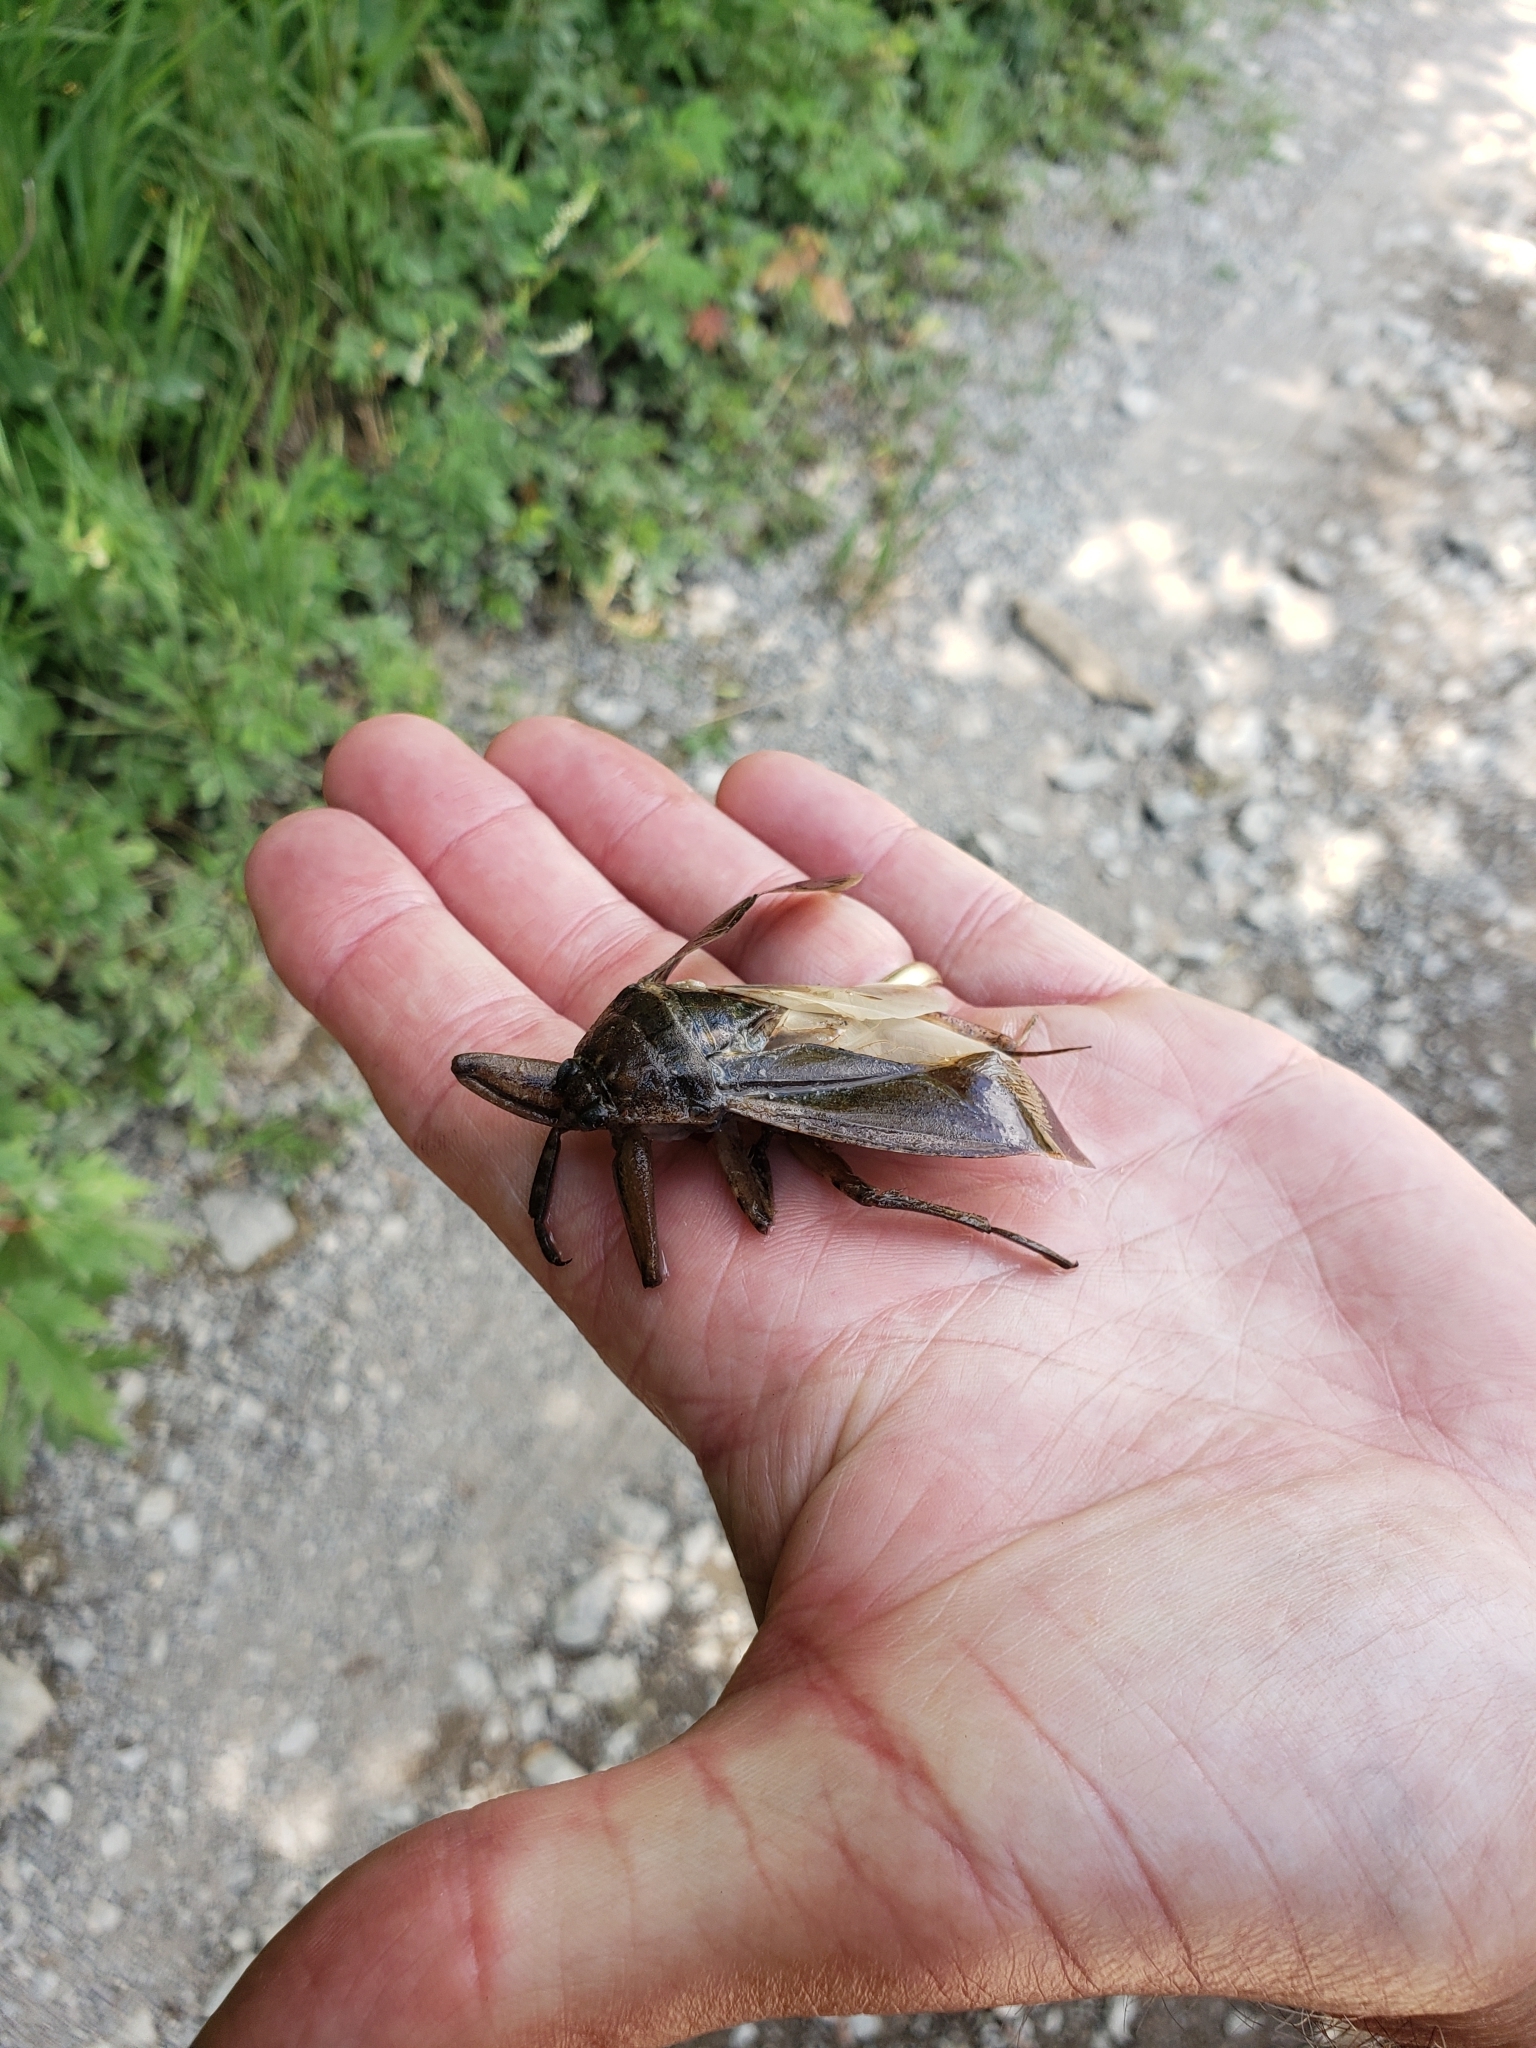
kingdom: Animalia
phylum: Arthropoda
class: Insecta
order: Hemiptera
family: Belostomatidae
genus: Lethocerus
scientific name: Lethocerus americanus
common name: Giant water bug
